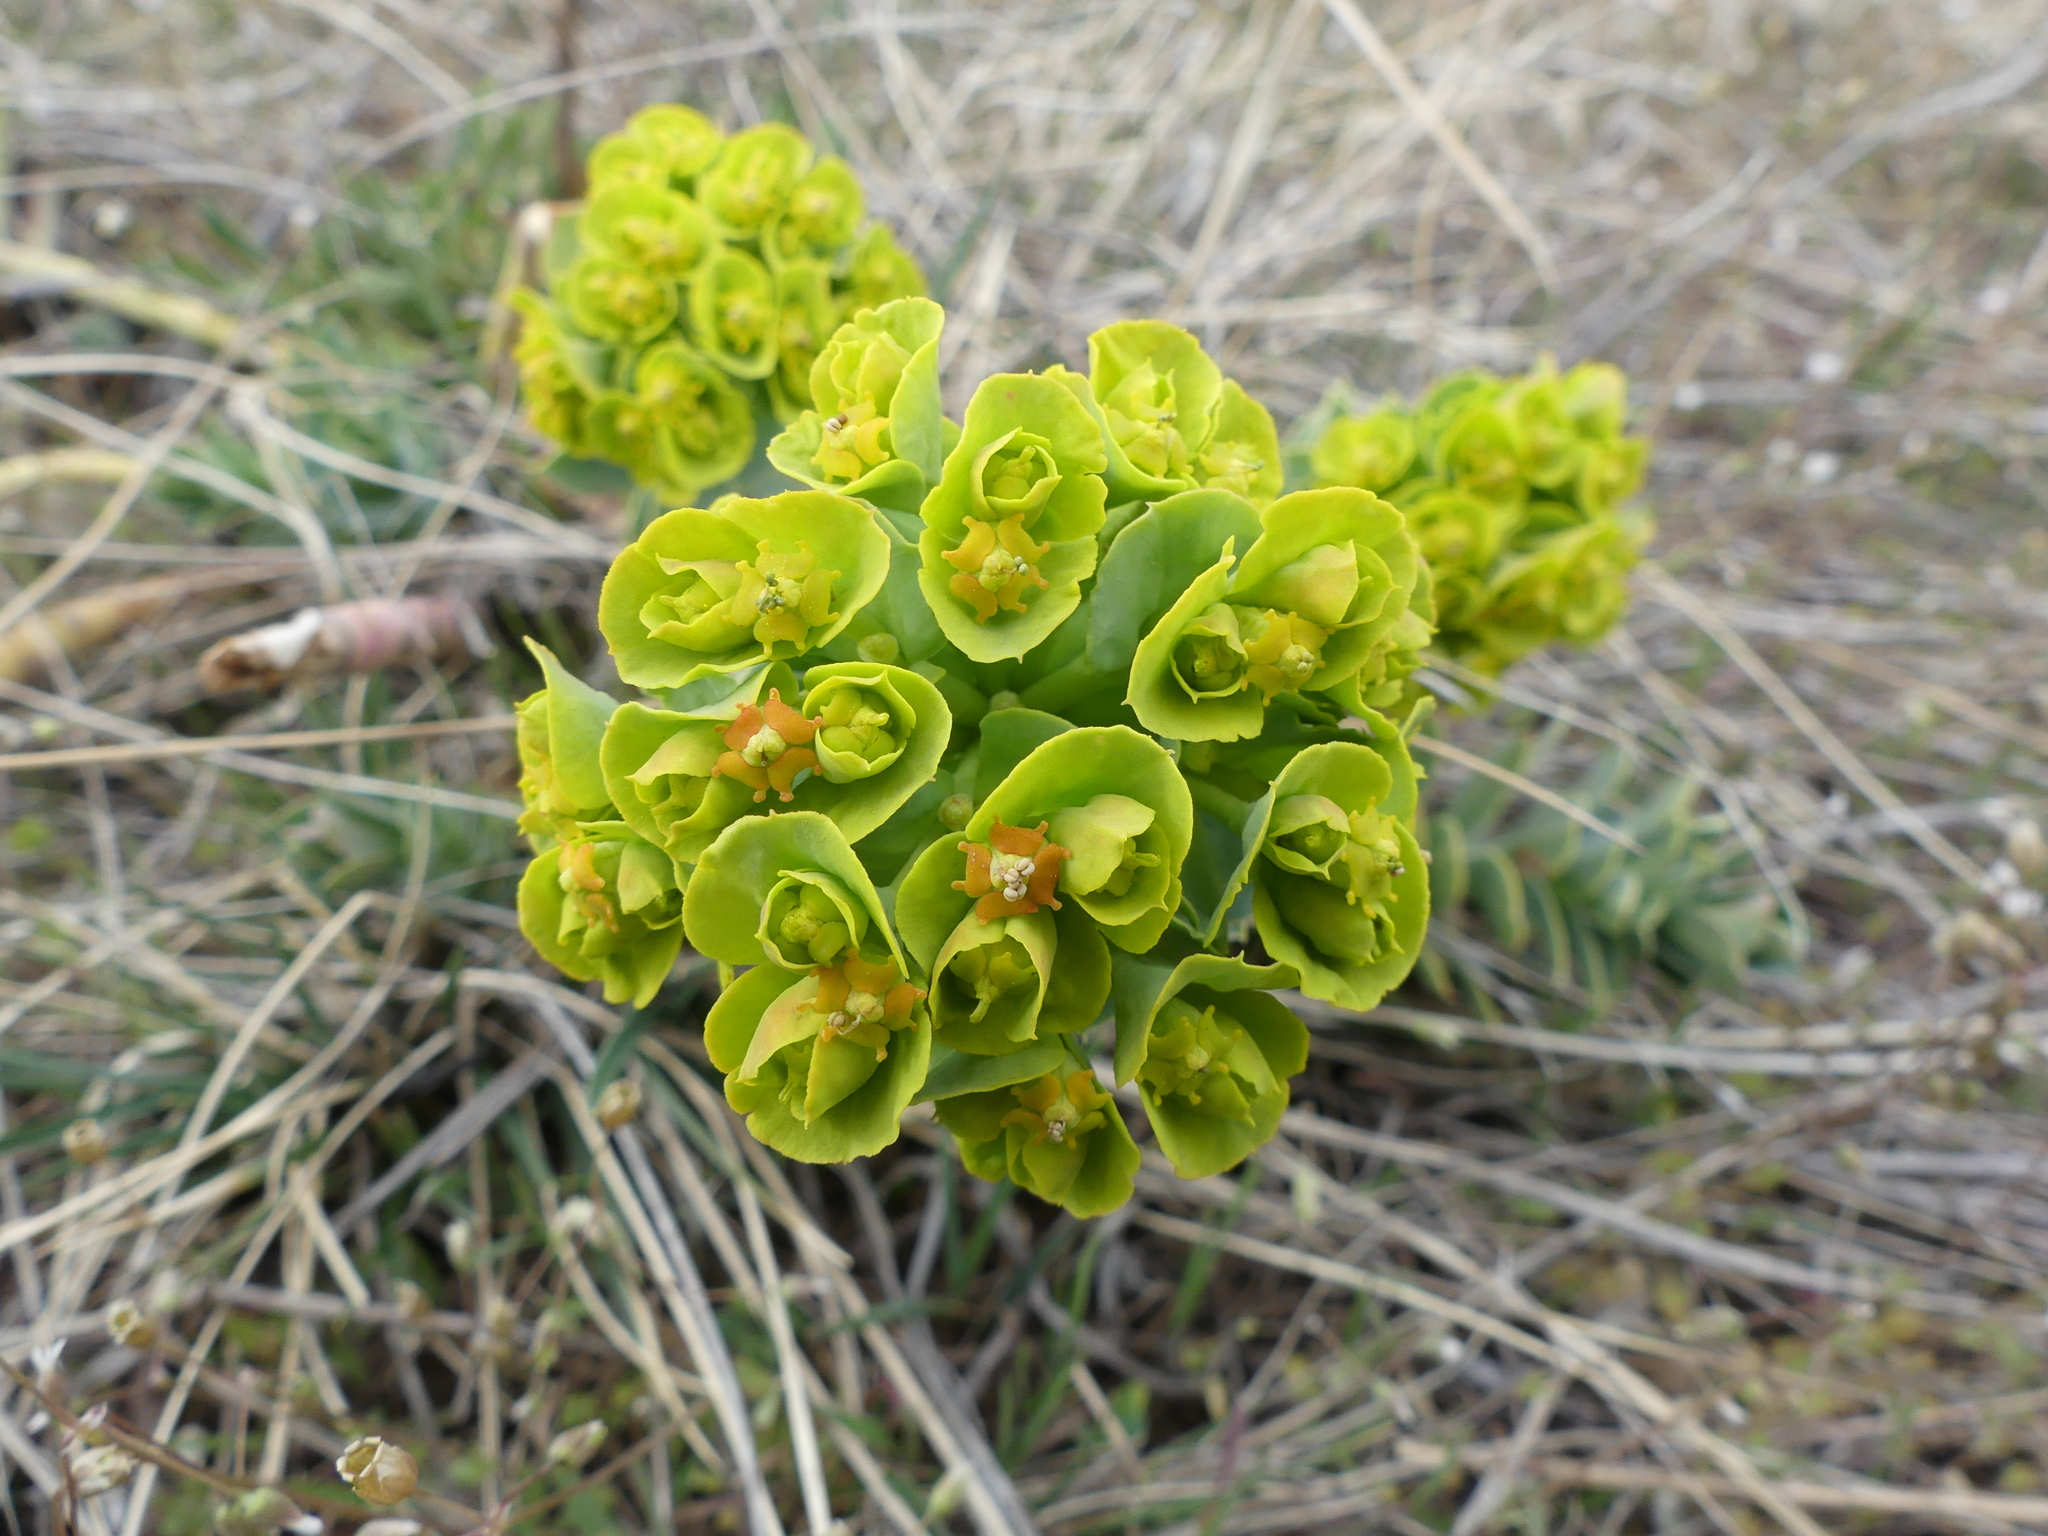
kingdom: Plantae
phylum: Tracheophyta
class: Magnoliopsida
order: Malpighiales
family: Euphorbiaceae
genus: Euphorbia
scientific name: Euphorbia myrsinites
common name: Myrtle spurge
